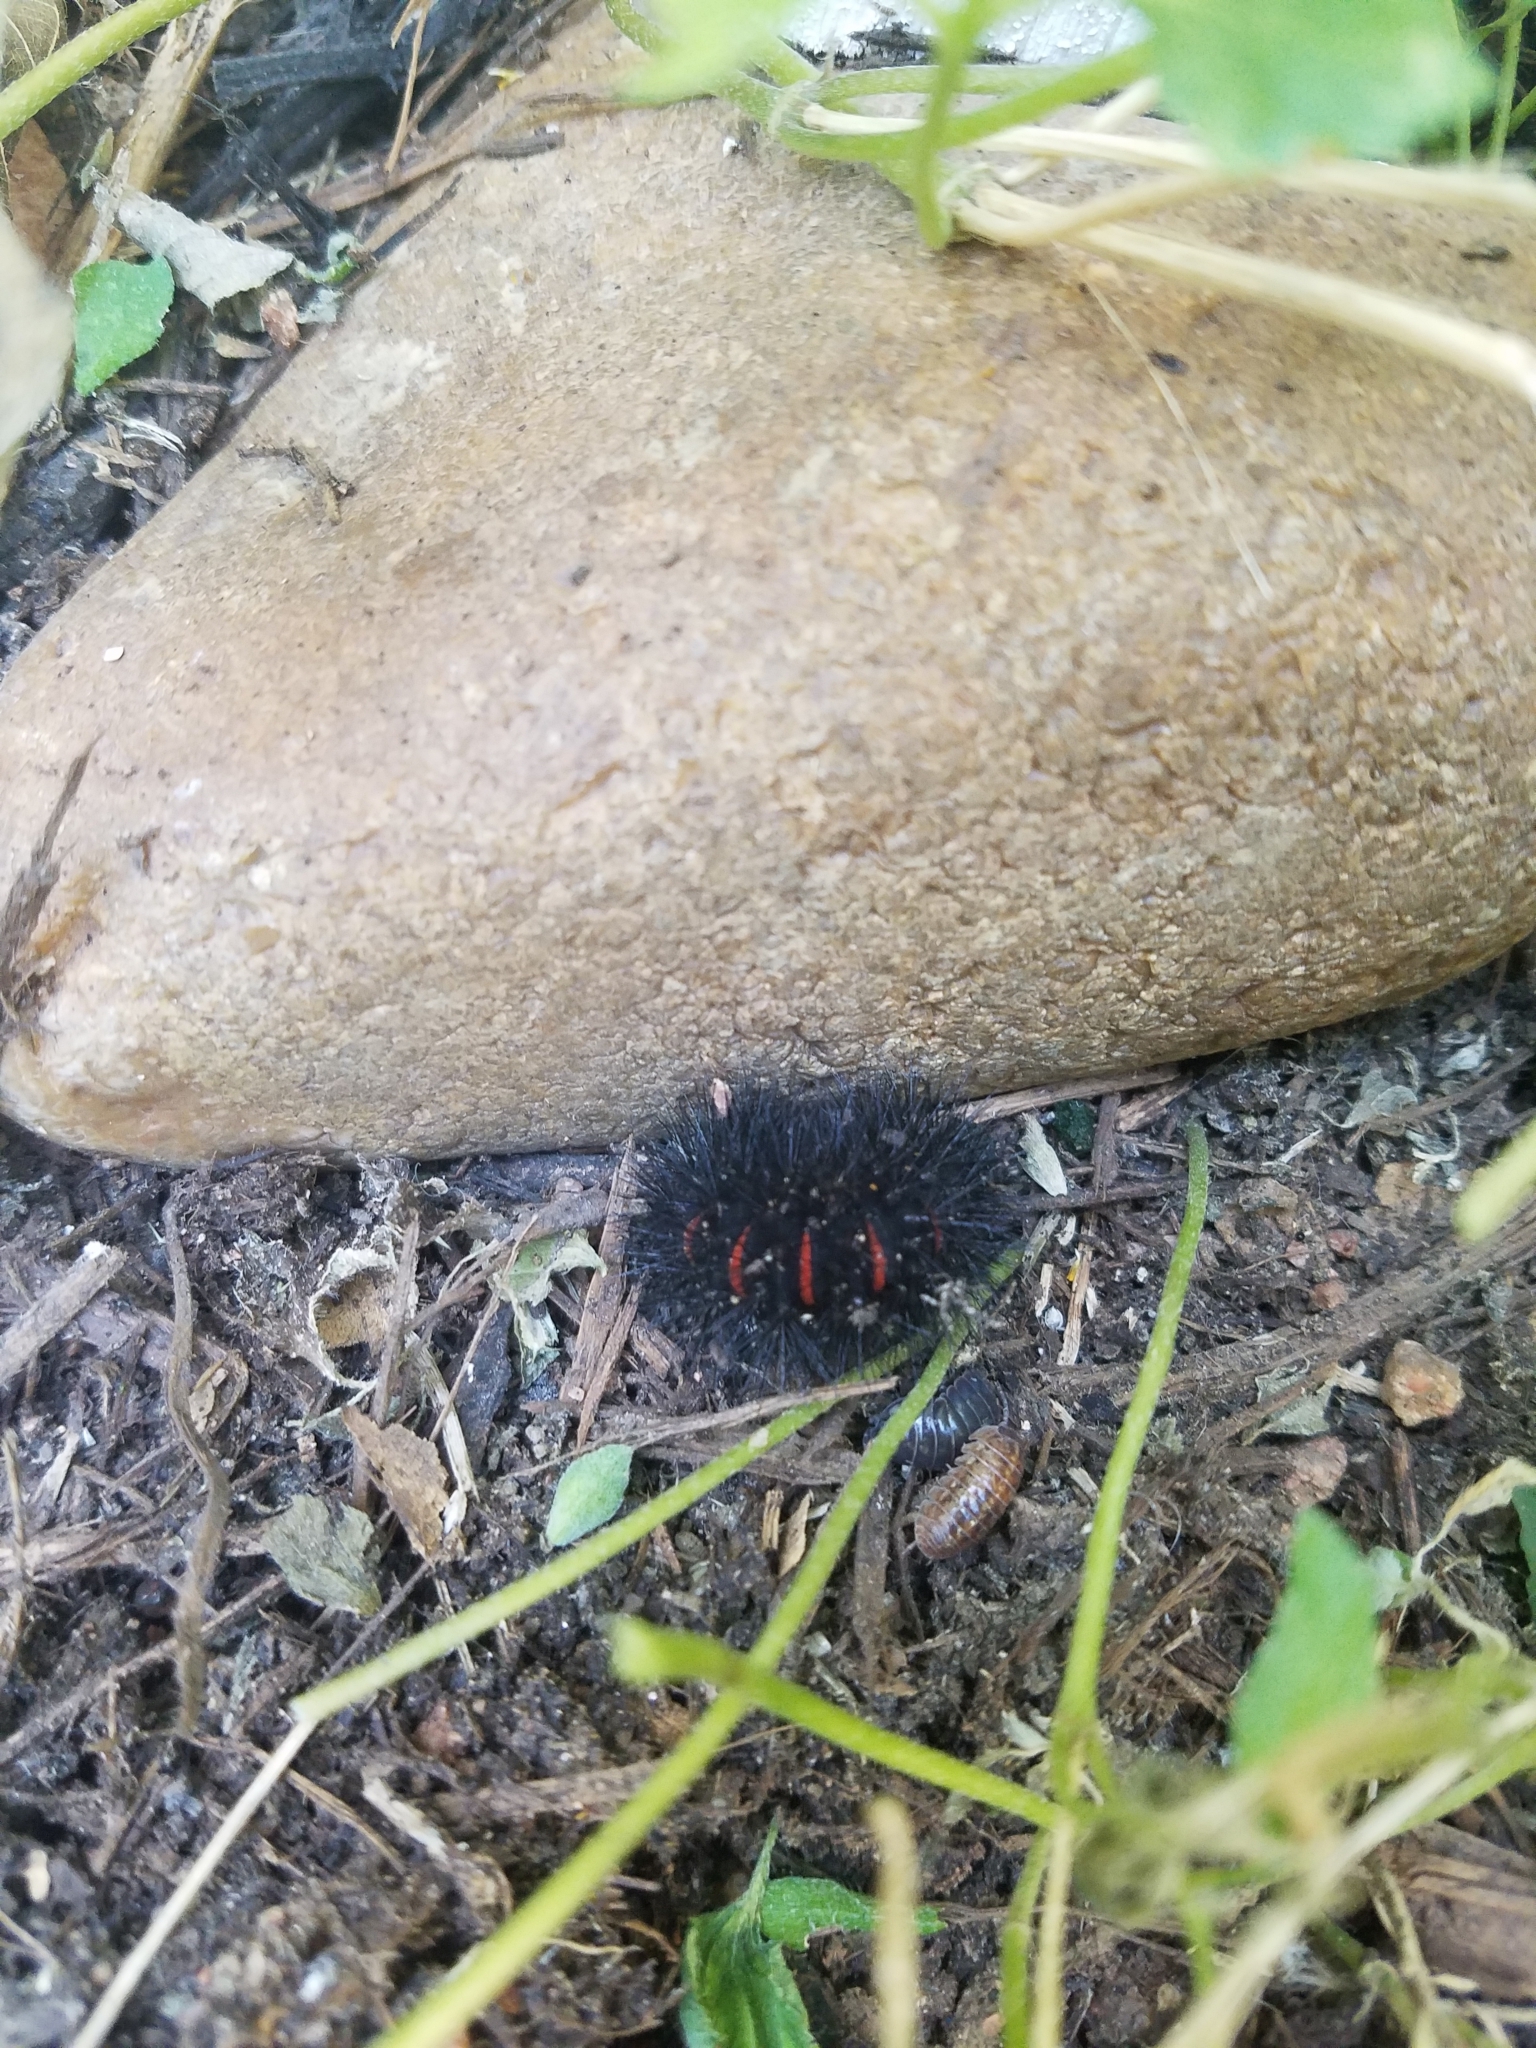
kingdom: Animalia
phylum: Arthropoda
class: Insecta
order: Lepidoptera
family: Erebidae
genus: Hypercompe
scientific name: Hypercompe scribonia
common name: Giant leopard moth
